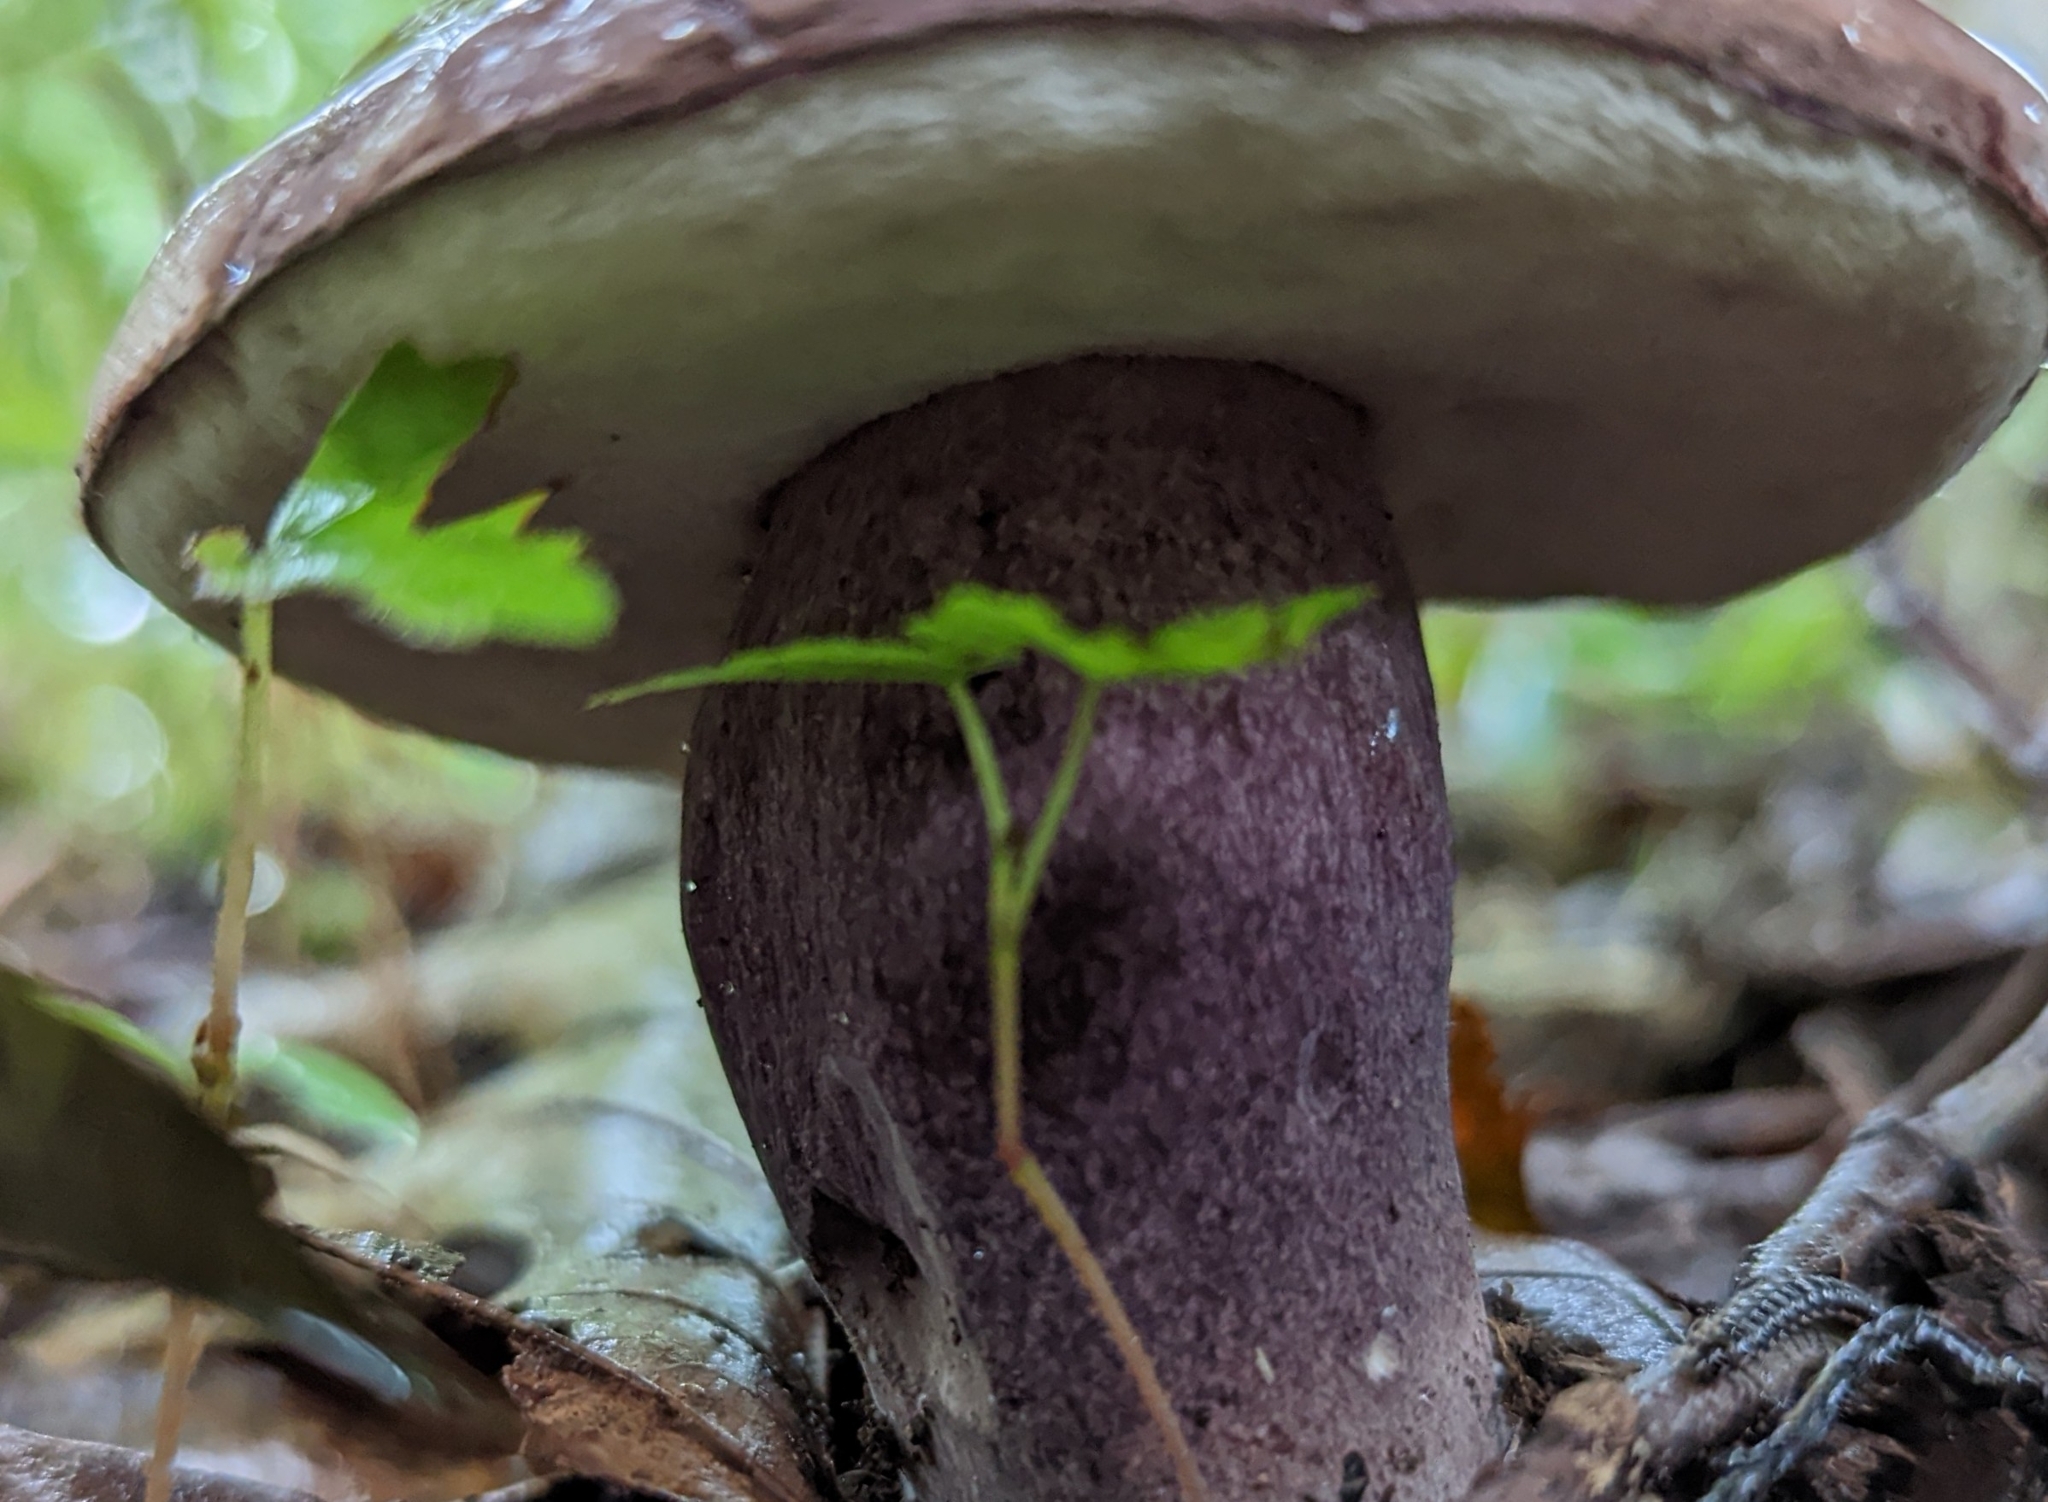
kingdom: Fungi
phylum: Basidiomycota
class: Agaricomycetes
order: Boletales
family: Boletaceae
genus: Tylopilus
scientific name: Tylopilus plumbeoviolaceus
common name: Violet gray bolete
